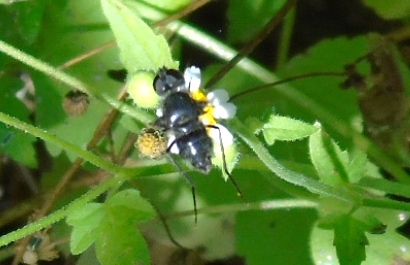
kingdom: Animalia
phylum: Arthropoda
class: Insecta
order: Diptera
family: Bombyliidae
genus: Anthrax
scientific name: Anthrax
